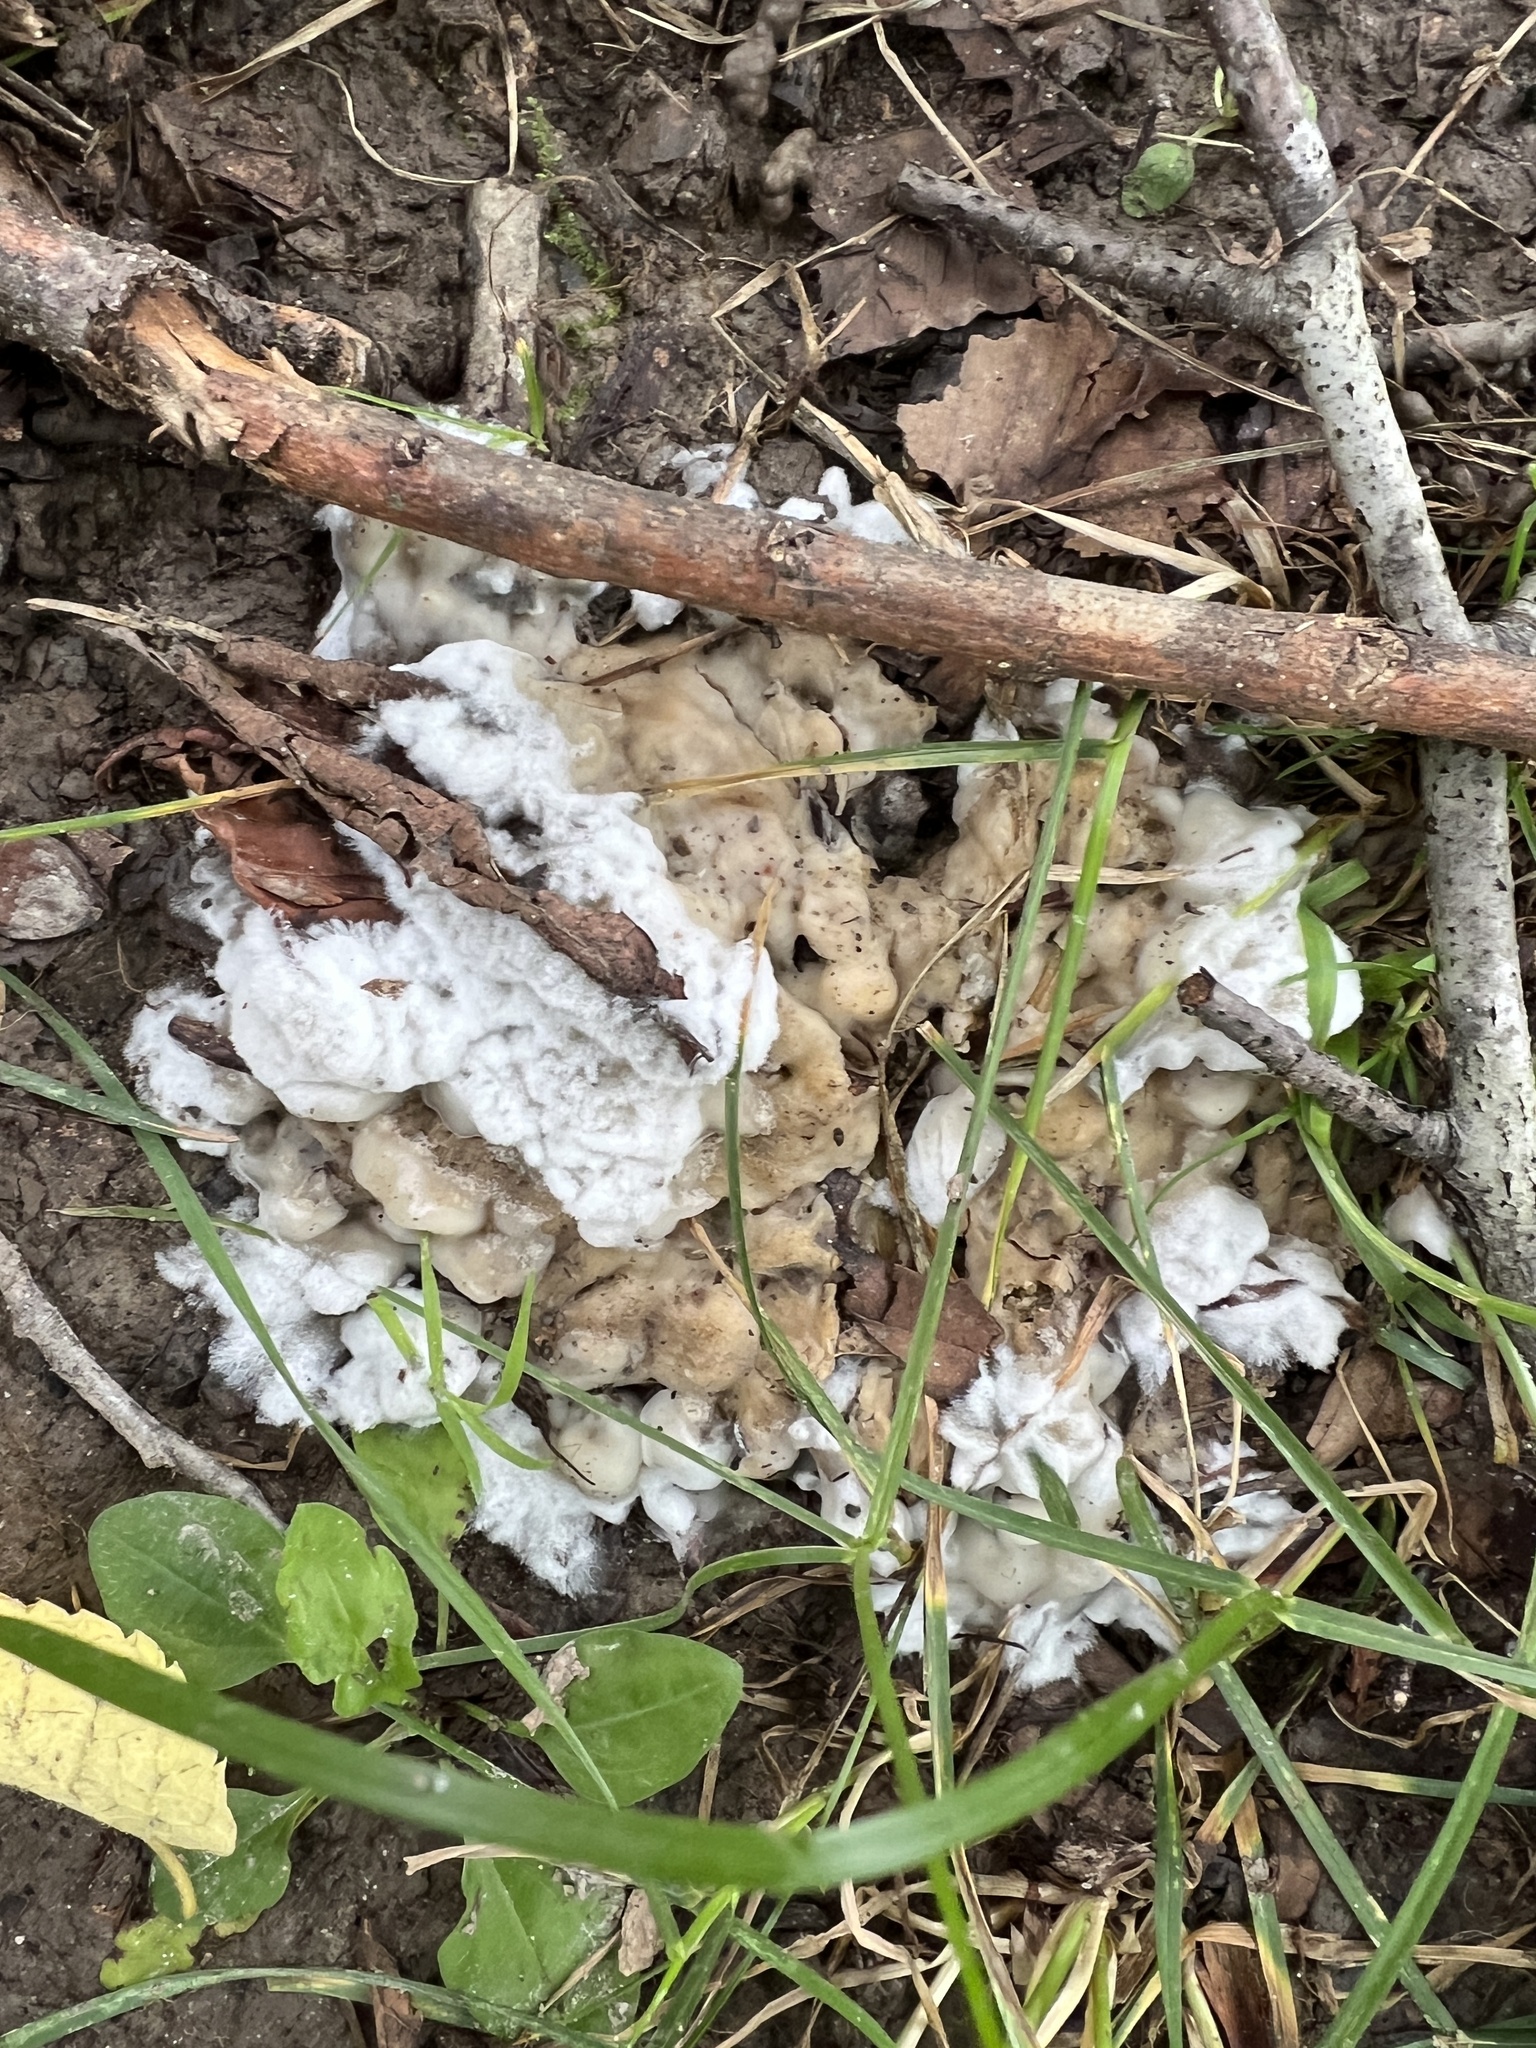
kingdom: Fungi
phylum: Basidiomycota
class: Agaricomycetes
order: Sebacinales
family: Sebacinaceae
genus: Sebacina
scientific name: Sebacina incrustans
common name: Enveloping crust
